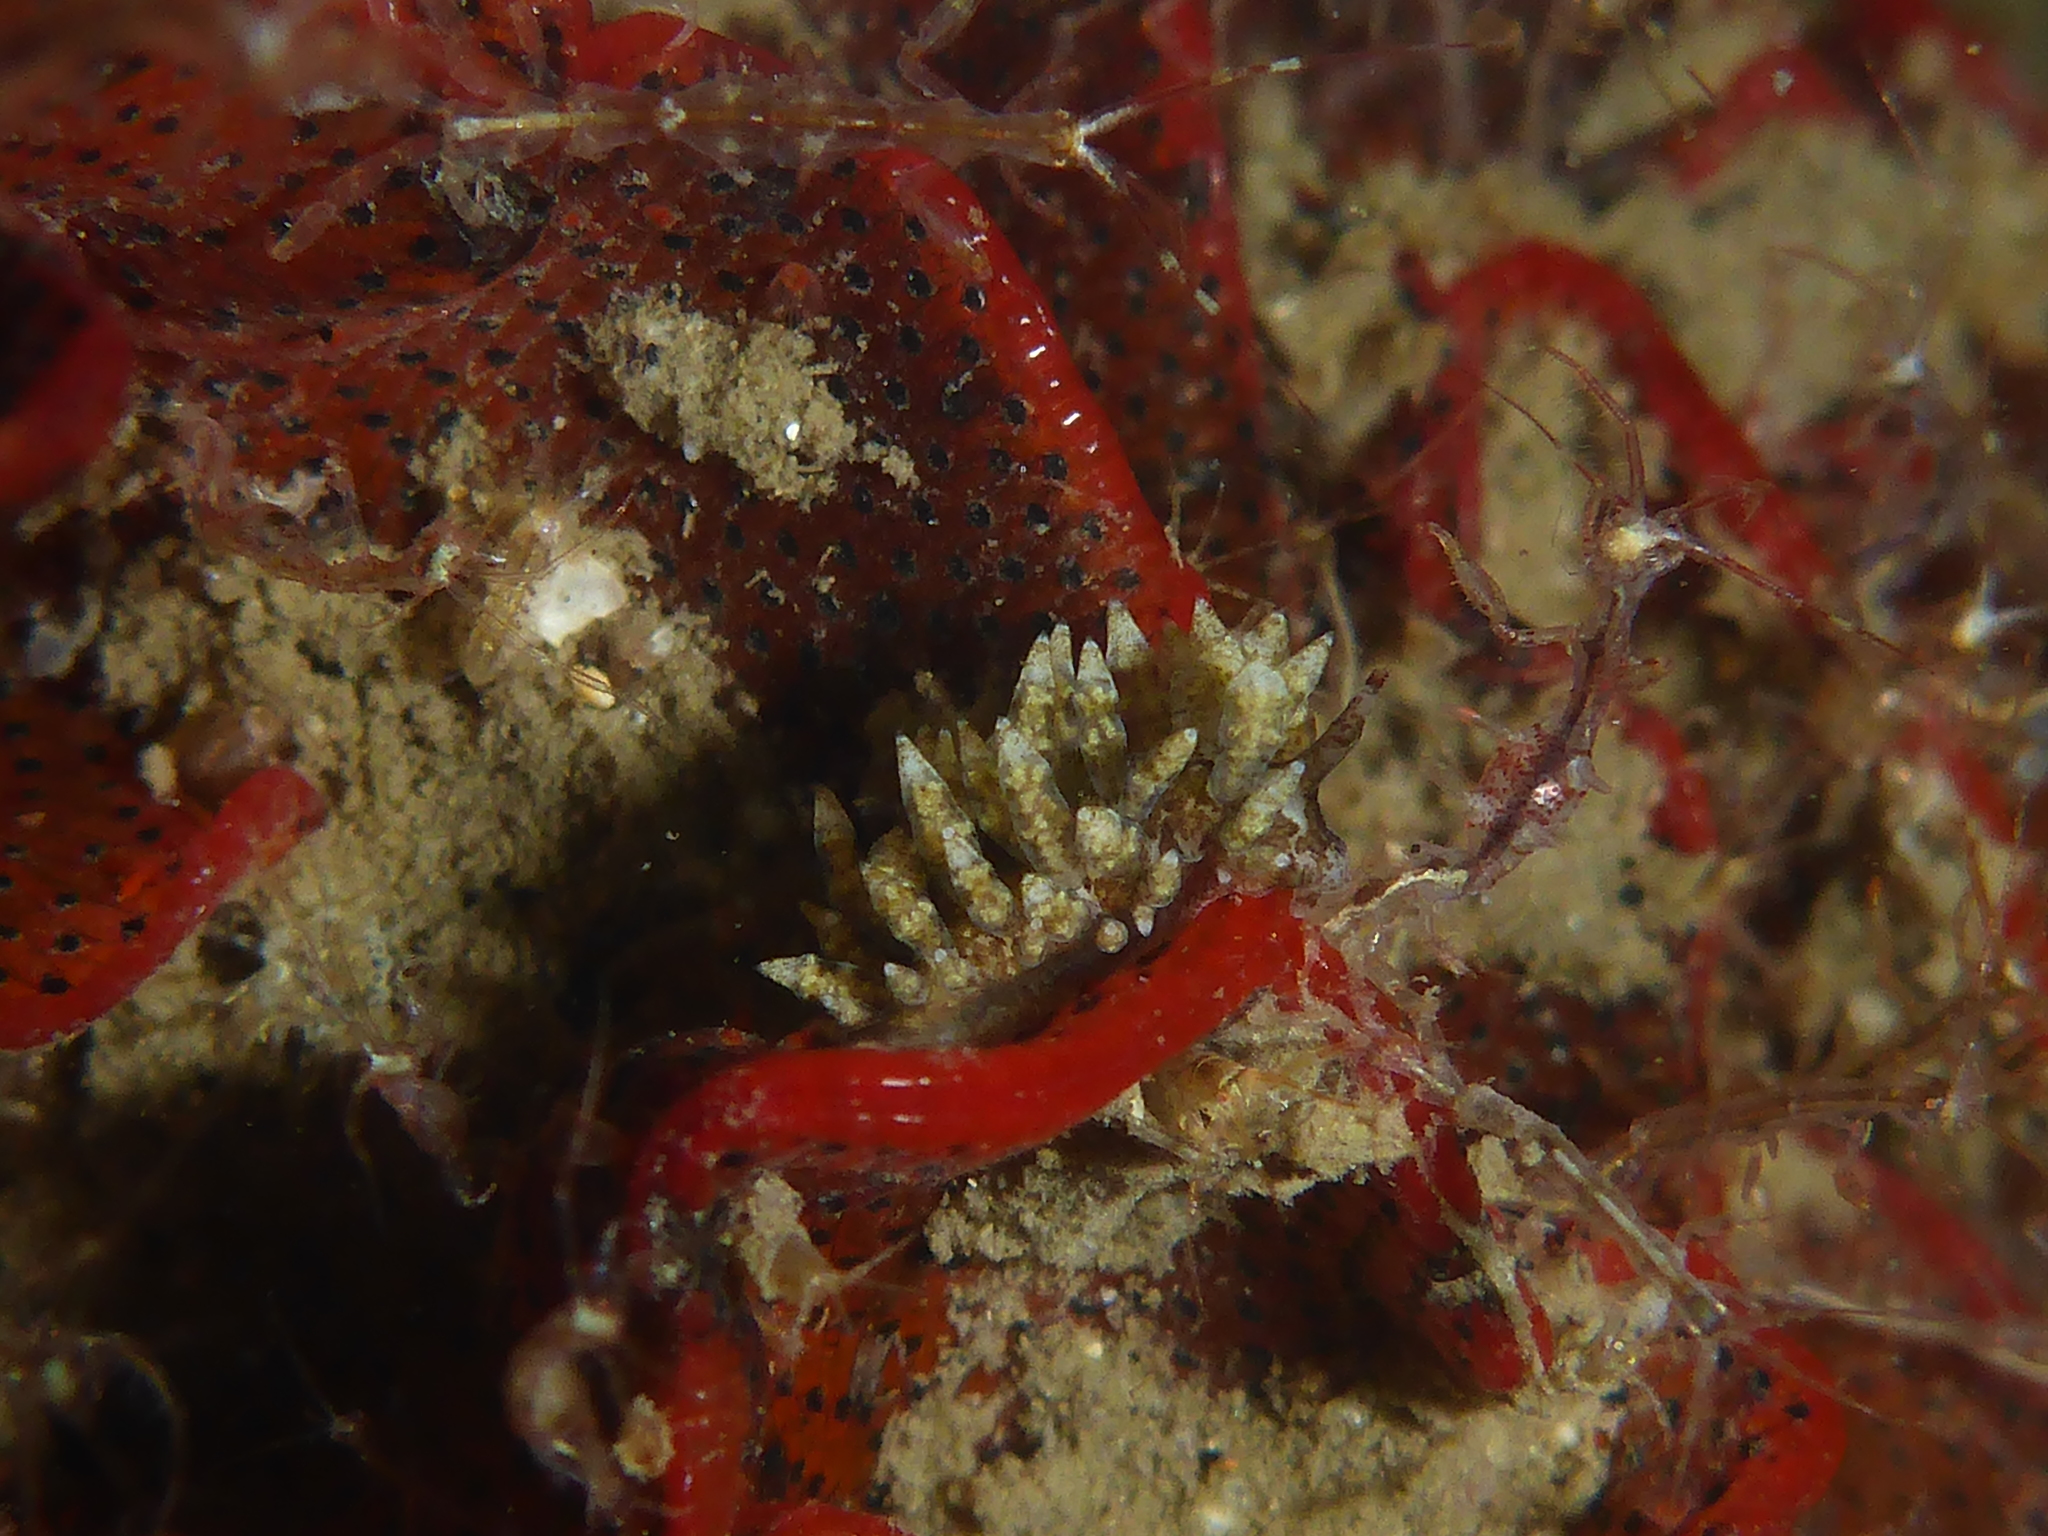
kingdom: Animalia
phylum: Mollusca
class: Gastropoda
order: Nudibranchia
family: Eubranchidae
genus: Eubranchus
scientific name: Eubranchus rustyus
